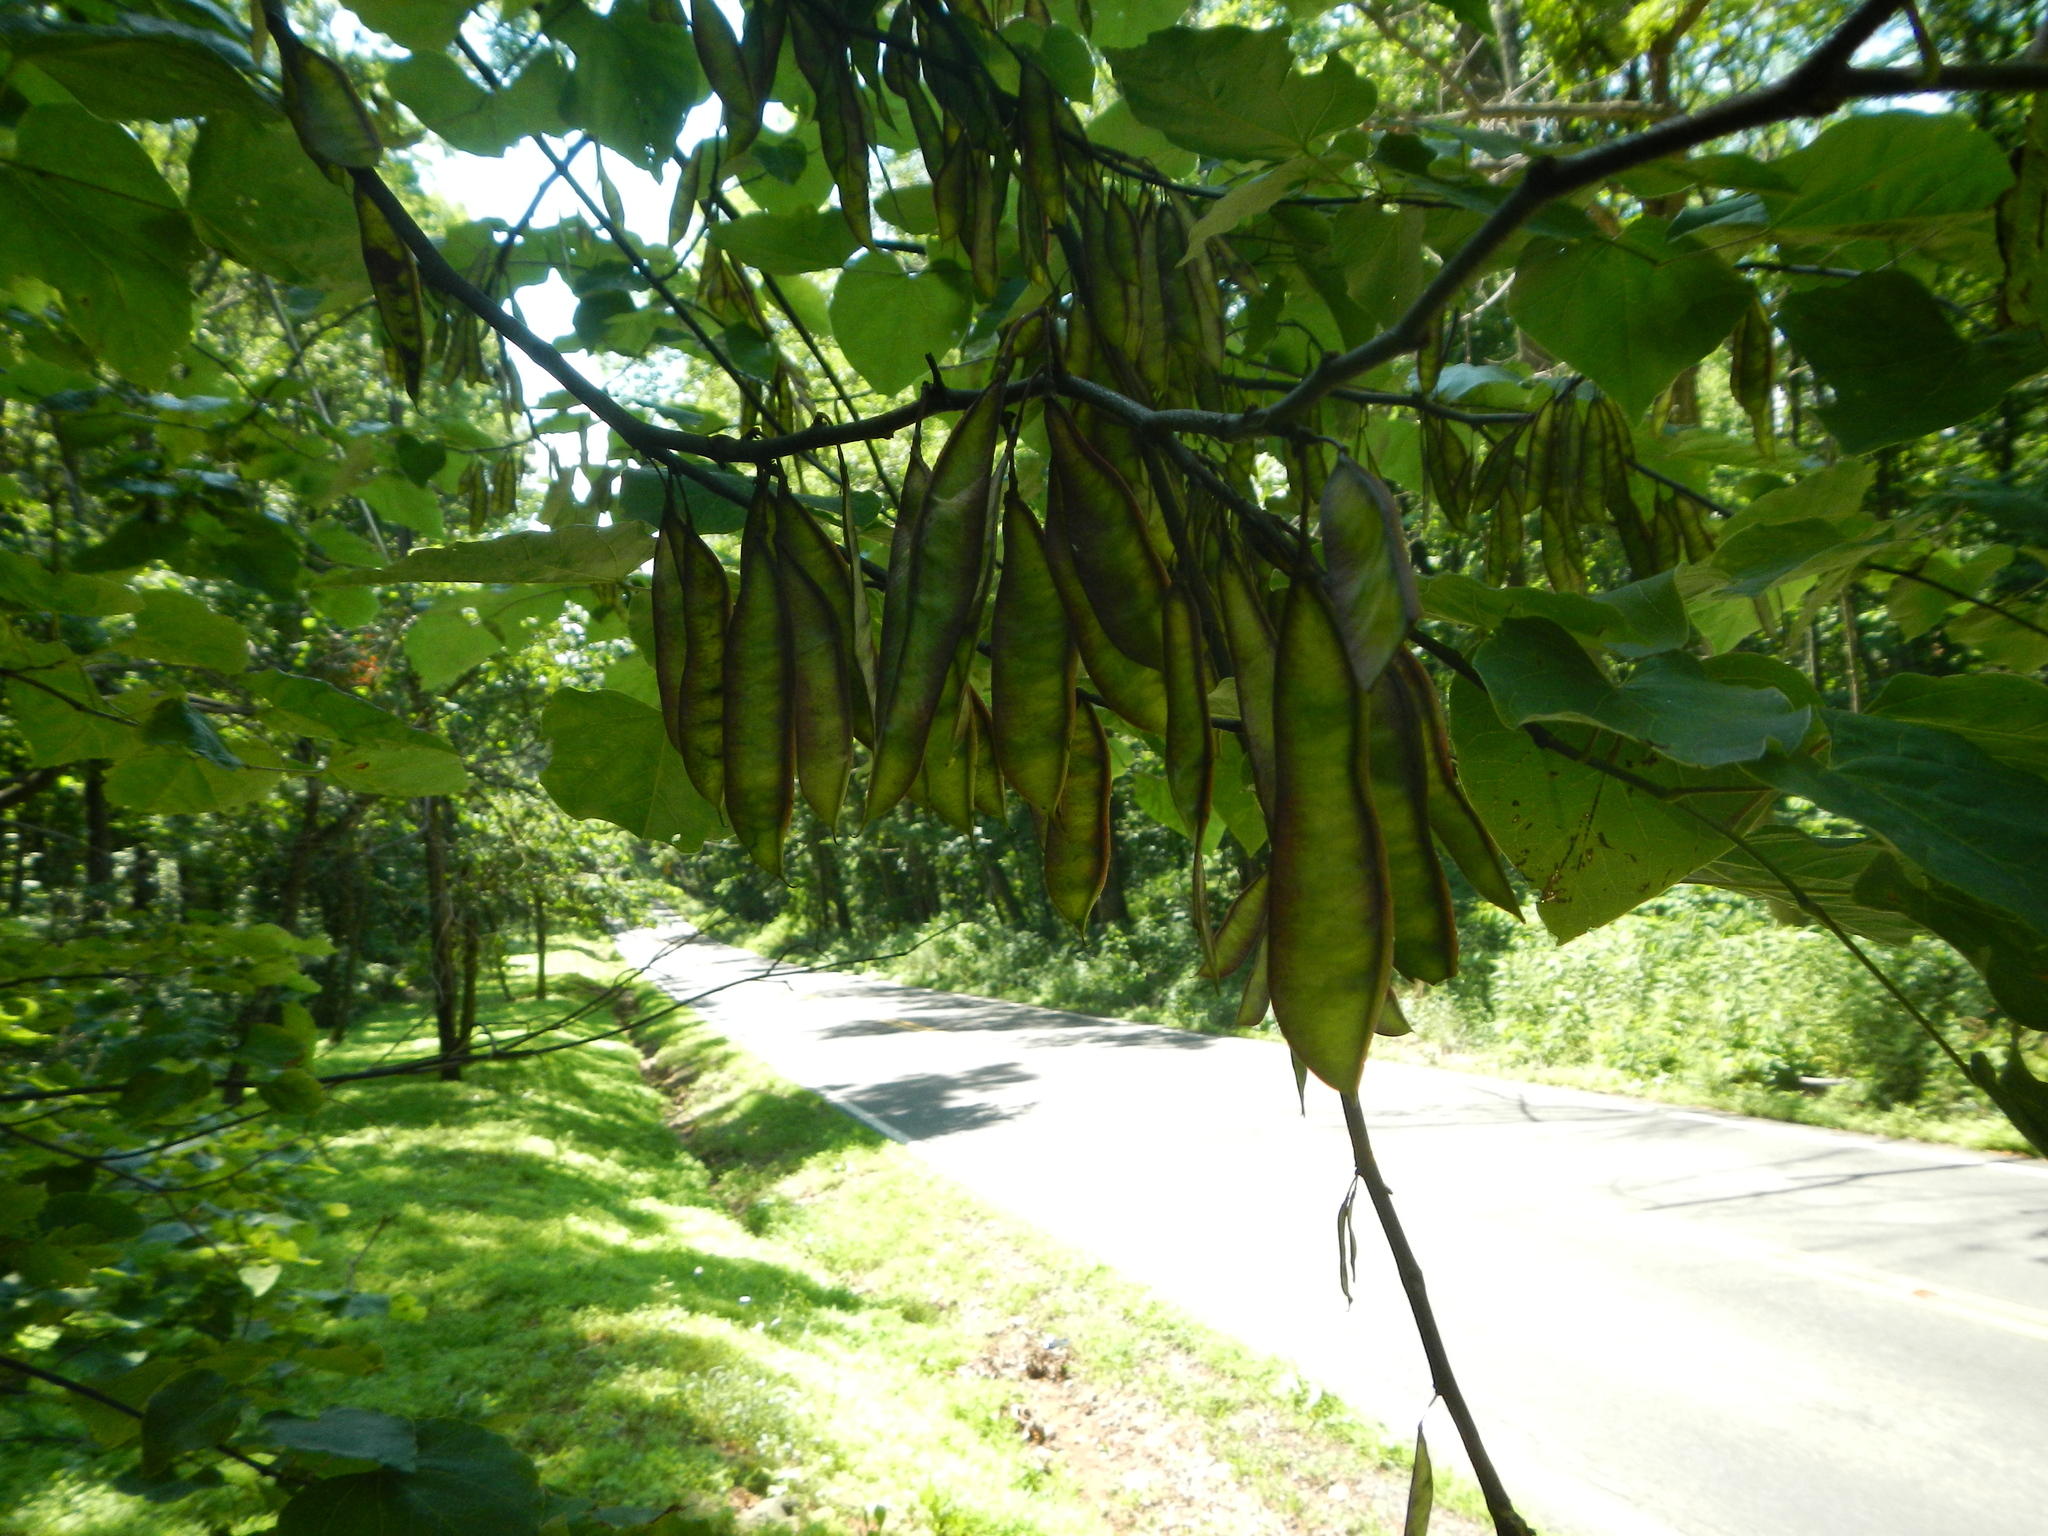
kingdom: Plantae
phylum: Tracheophyta
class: Magnoliopsida
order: Fabales
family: Fabaceae
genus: Cercis
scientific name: Cercis canadensis
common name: Eastern redbud
